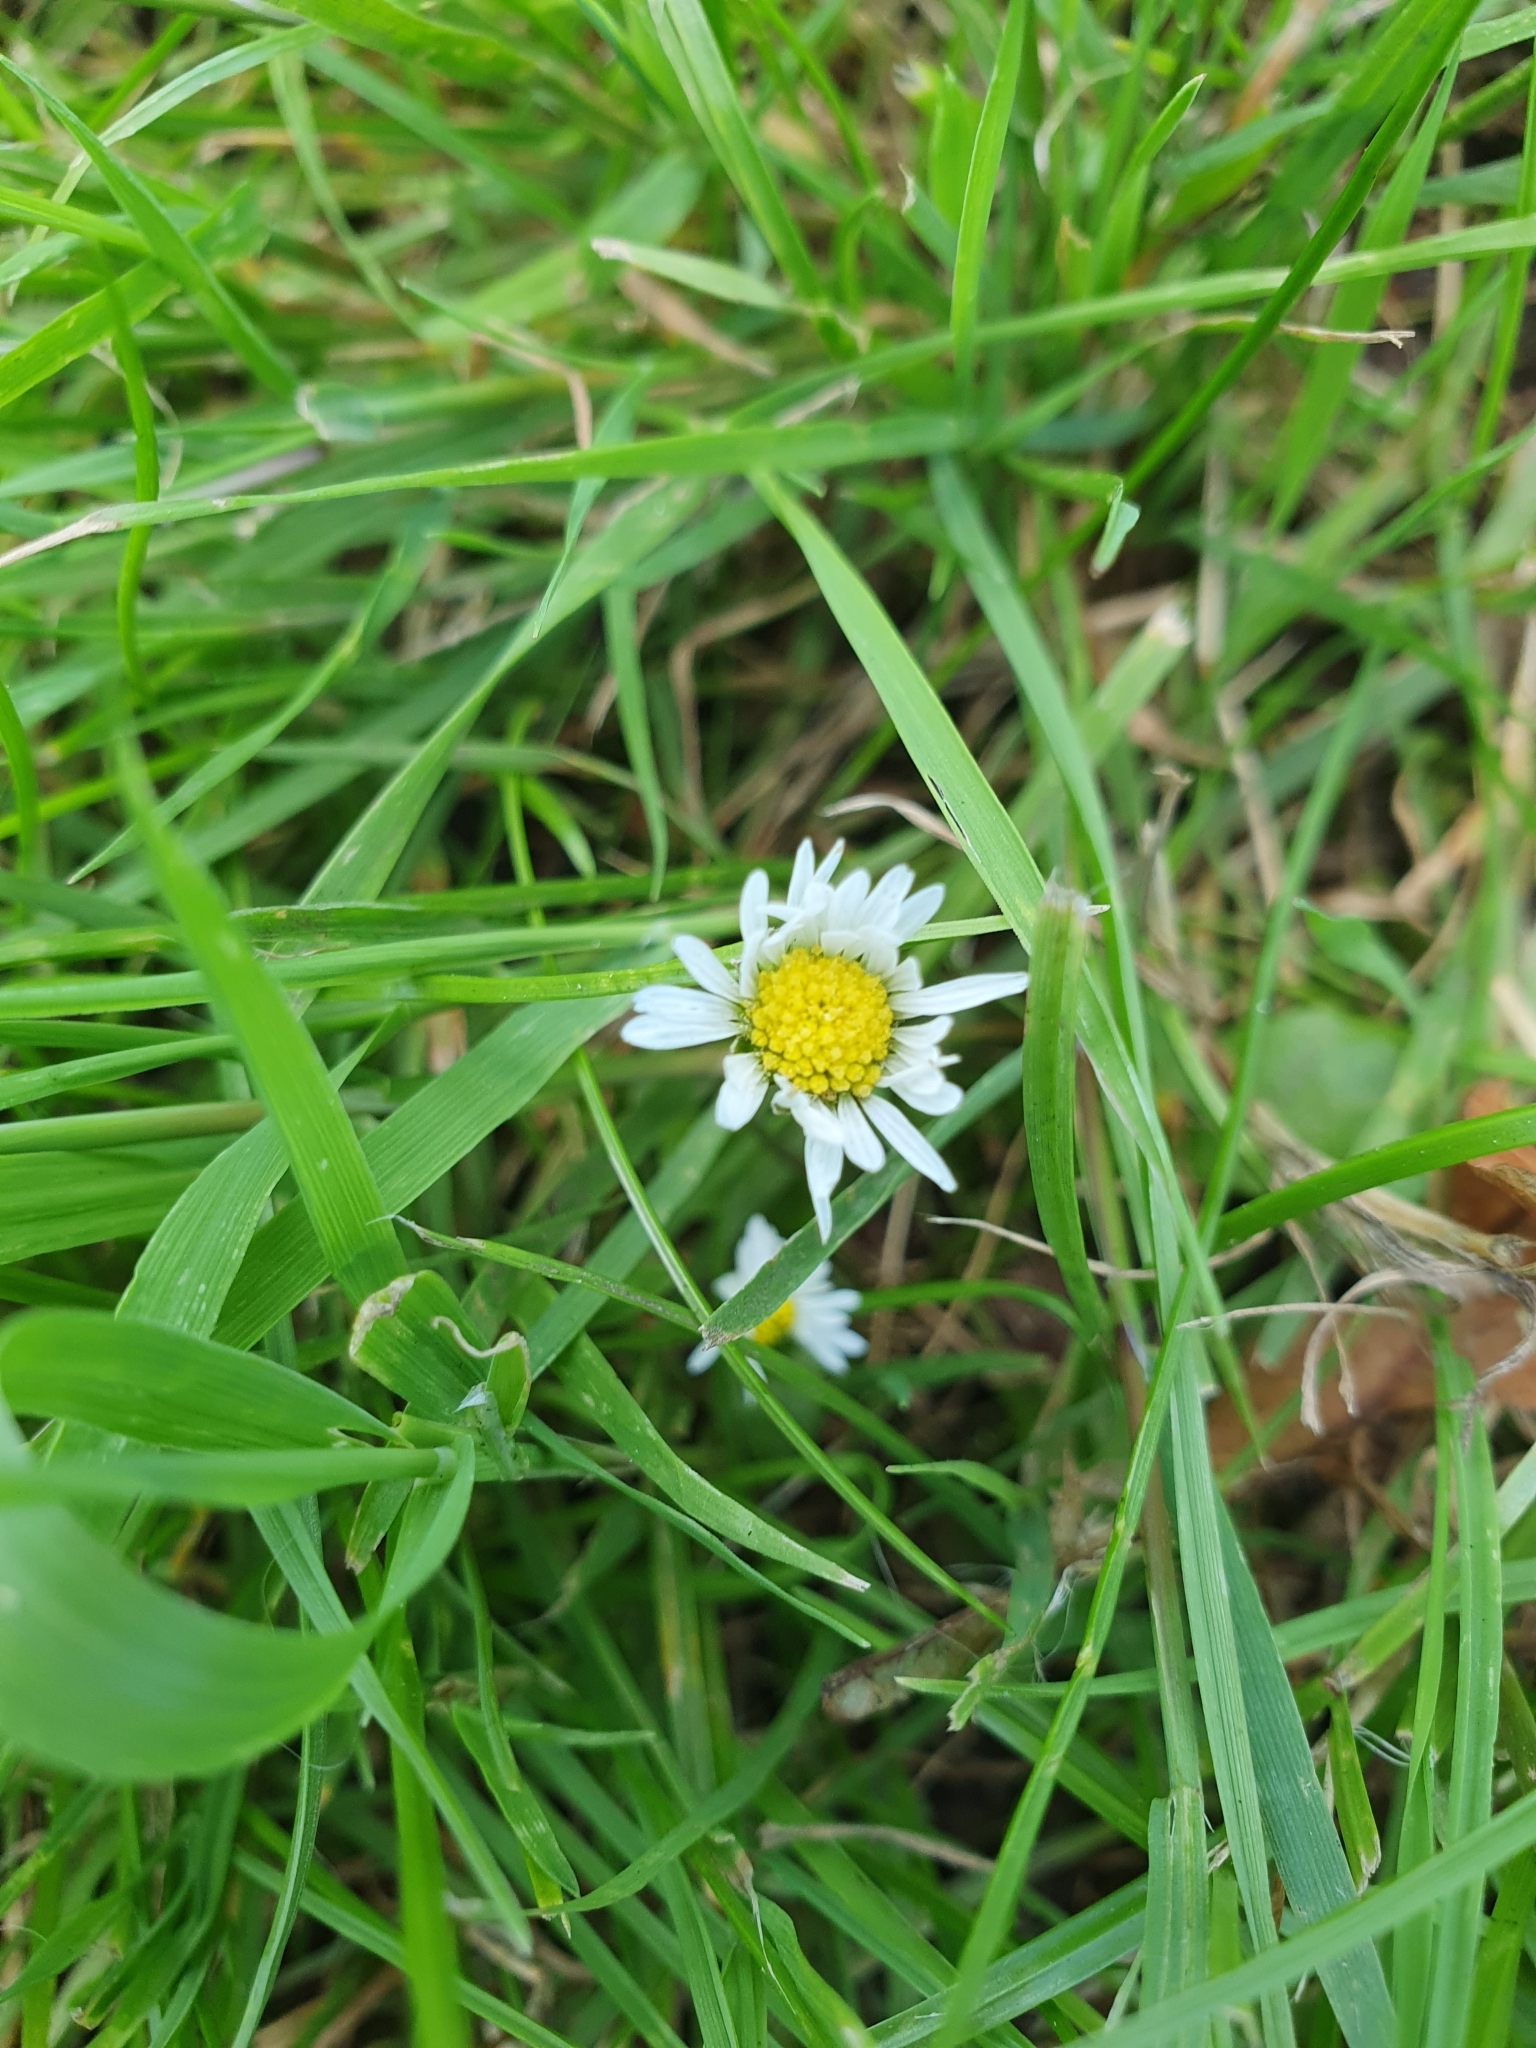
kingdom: Plantae
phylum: Tracheophyta
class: Magnoliopsida
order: Asterales
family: Asteraceae
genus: Bellis
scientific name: Bellis perennis
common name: Lawndaisy
